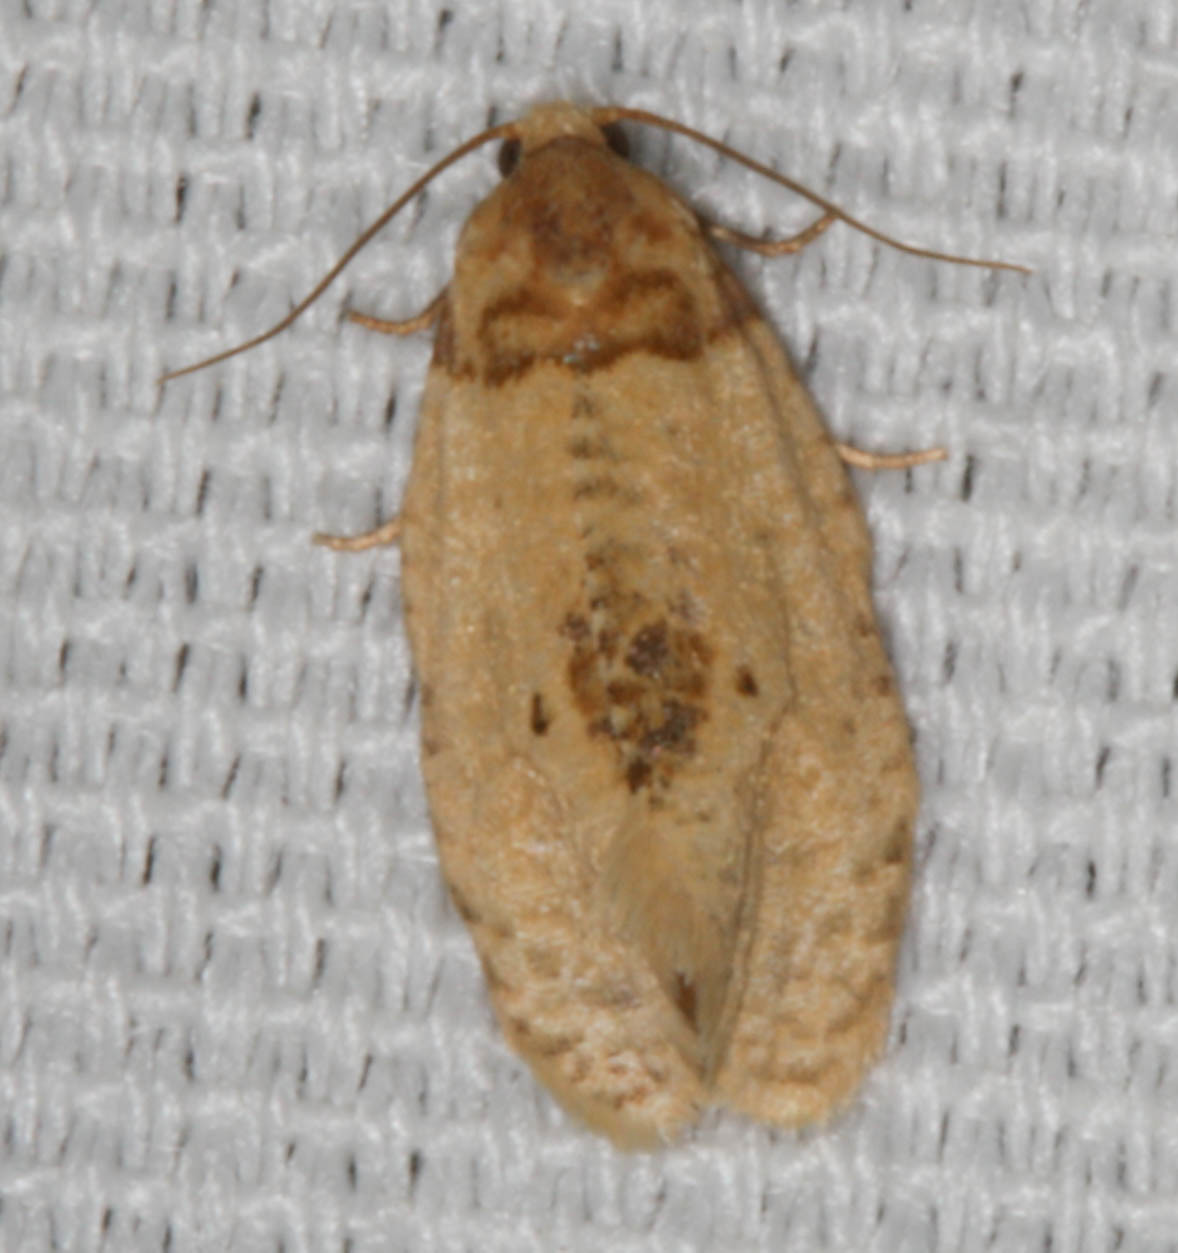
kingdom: Animalia
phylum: Arthropoda
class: Insecta
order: Lepidoptera
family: Tortricidae
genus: Henricus
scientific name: Henricus umbrabasana
